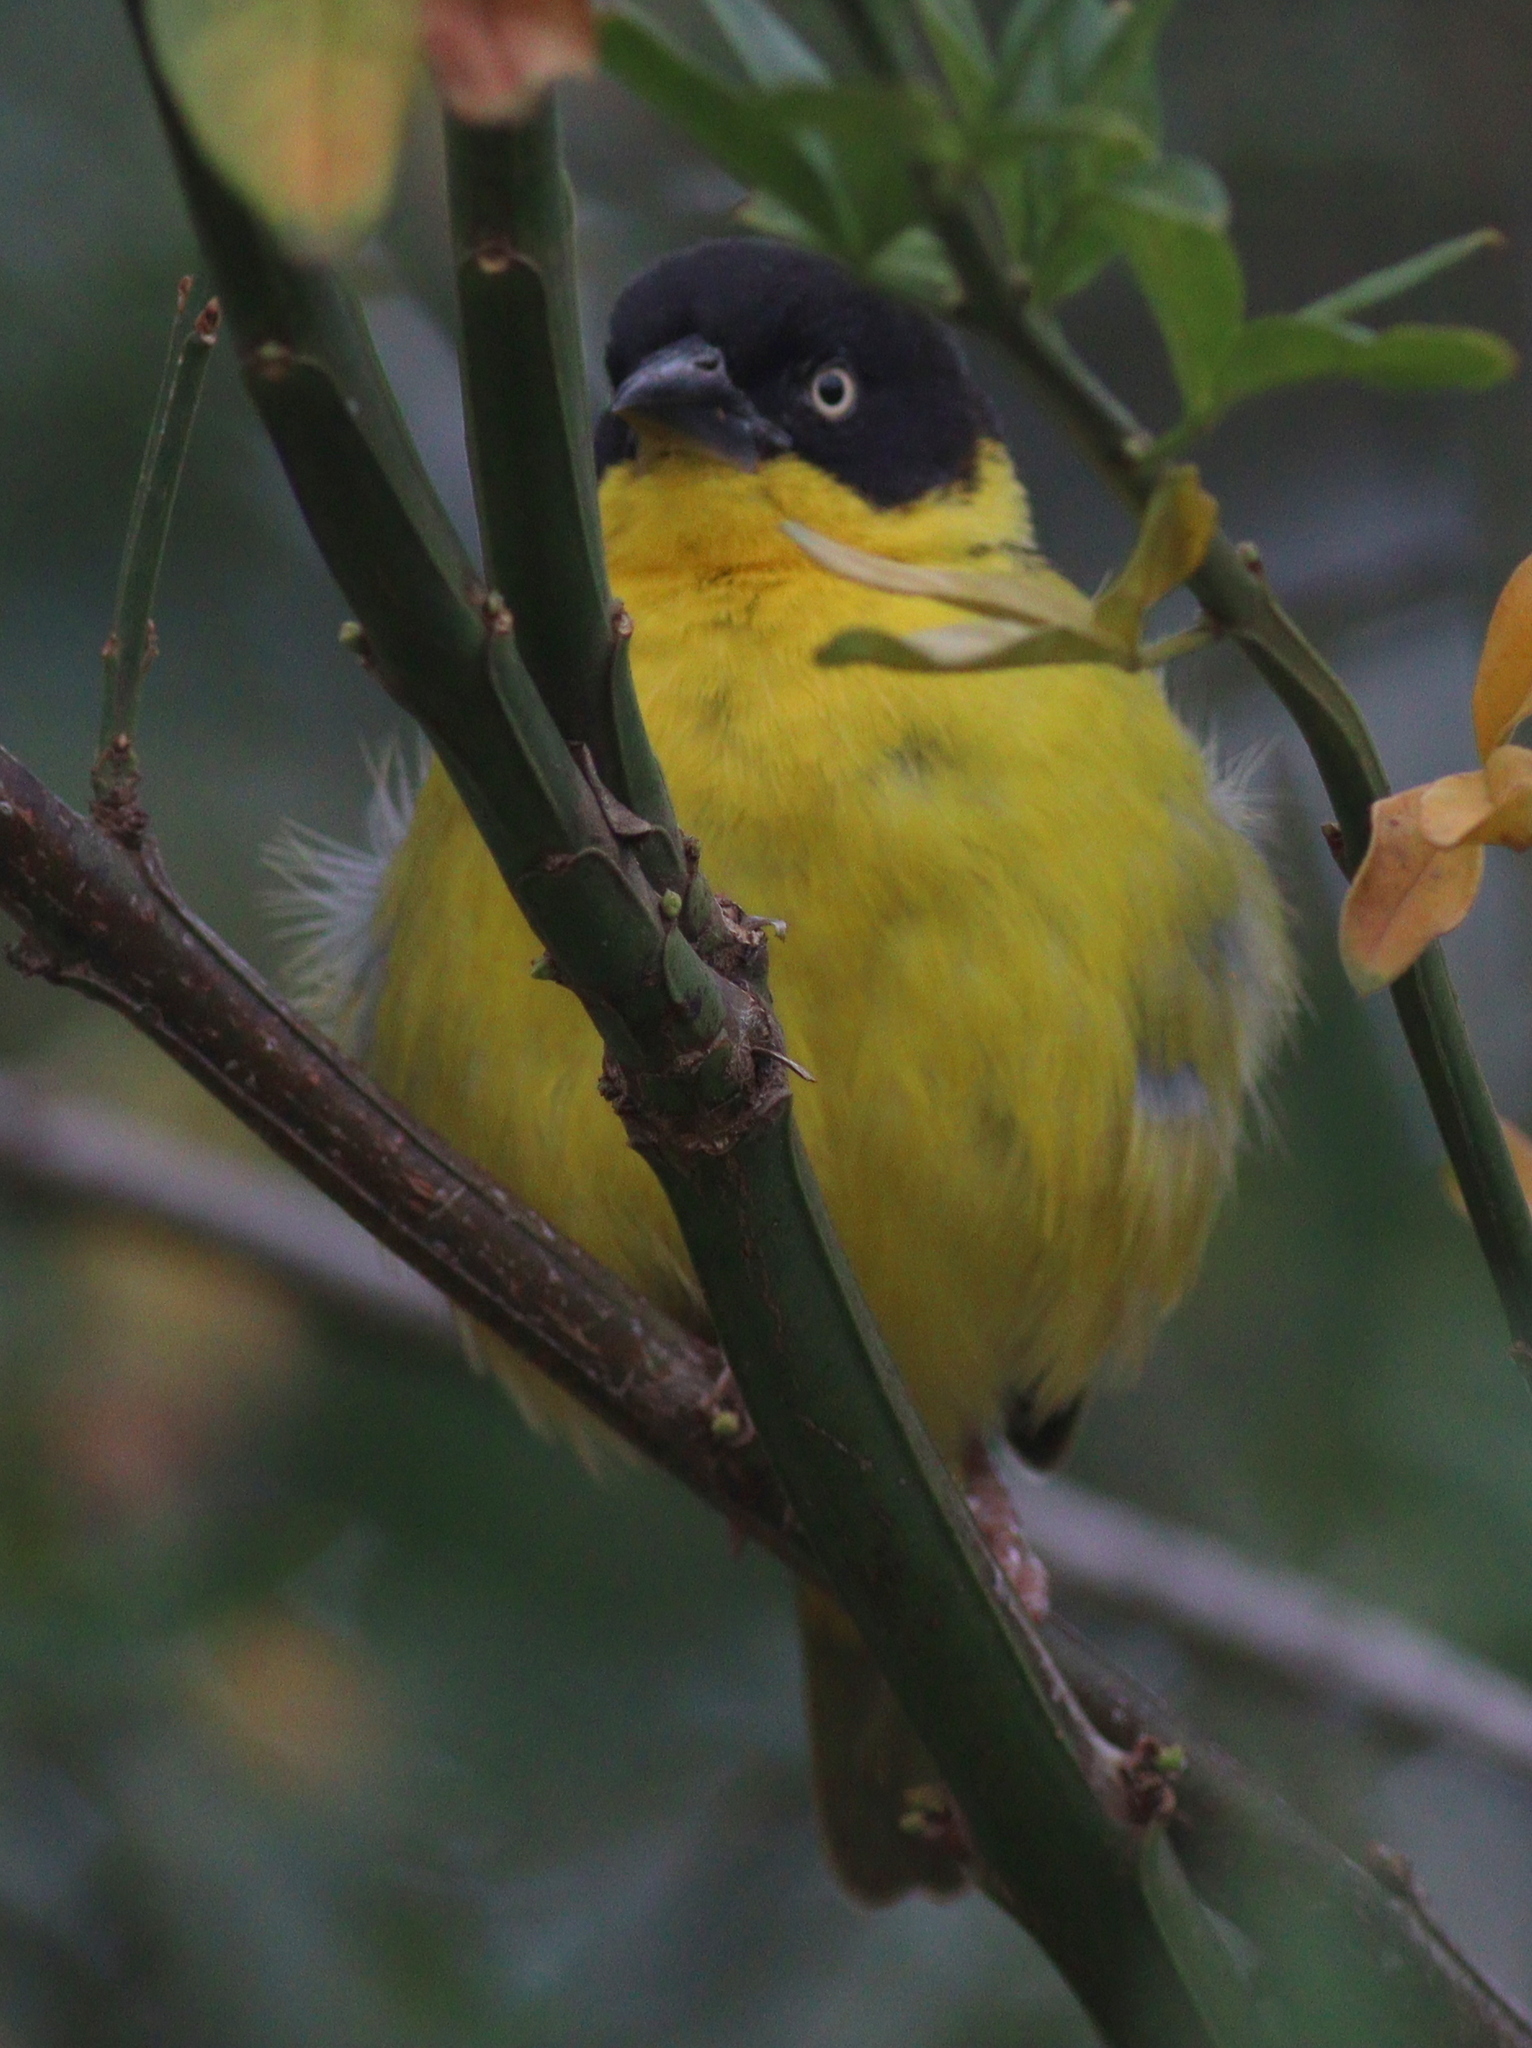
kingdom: Animalia
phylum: Chordata
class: Aves
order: Passeriformes
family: Ploceidae
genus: Ploceus
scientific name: Ploceus baglafecht
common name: Baglafecht weaver
